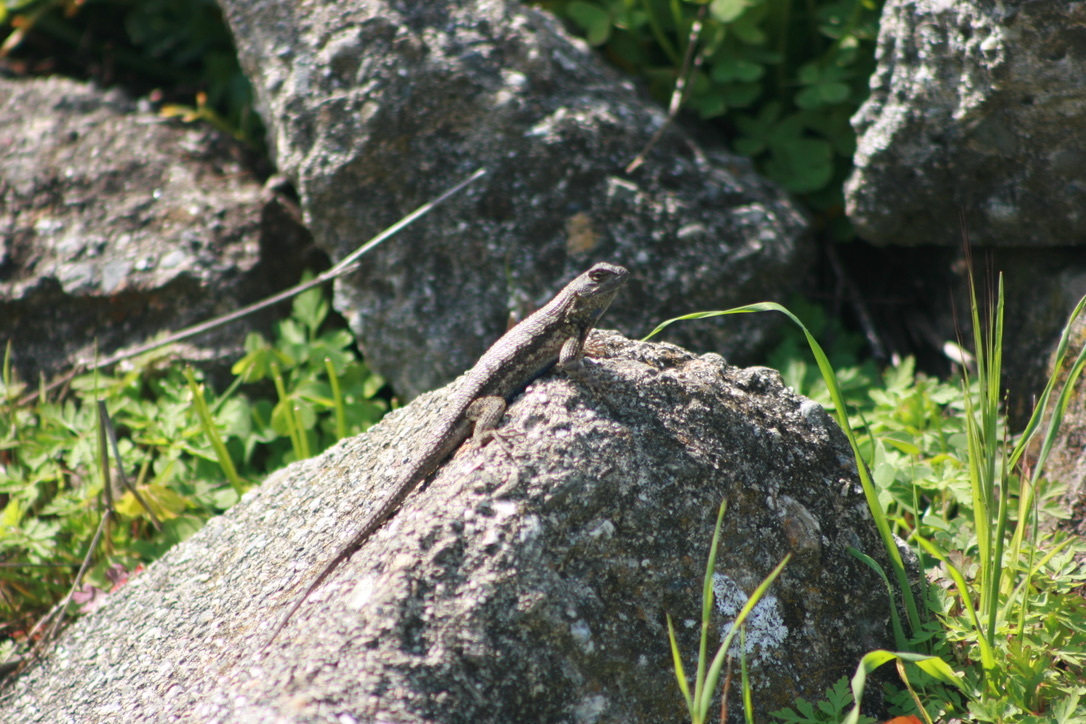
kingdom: Animalia
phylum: Chordata
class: Squamata
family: Phrynosomatidae
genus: Sceloporus
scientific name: Sceloporus occidentalis
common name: Western fence lizard
